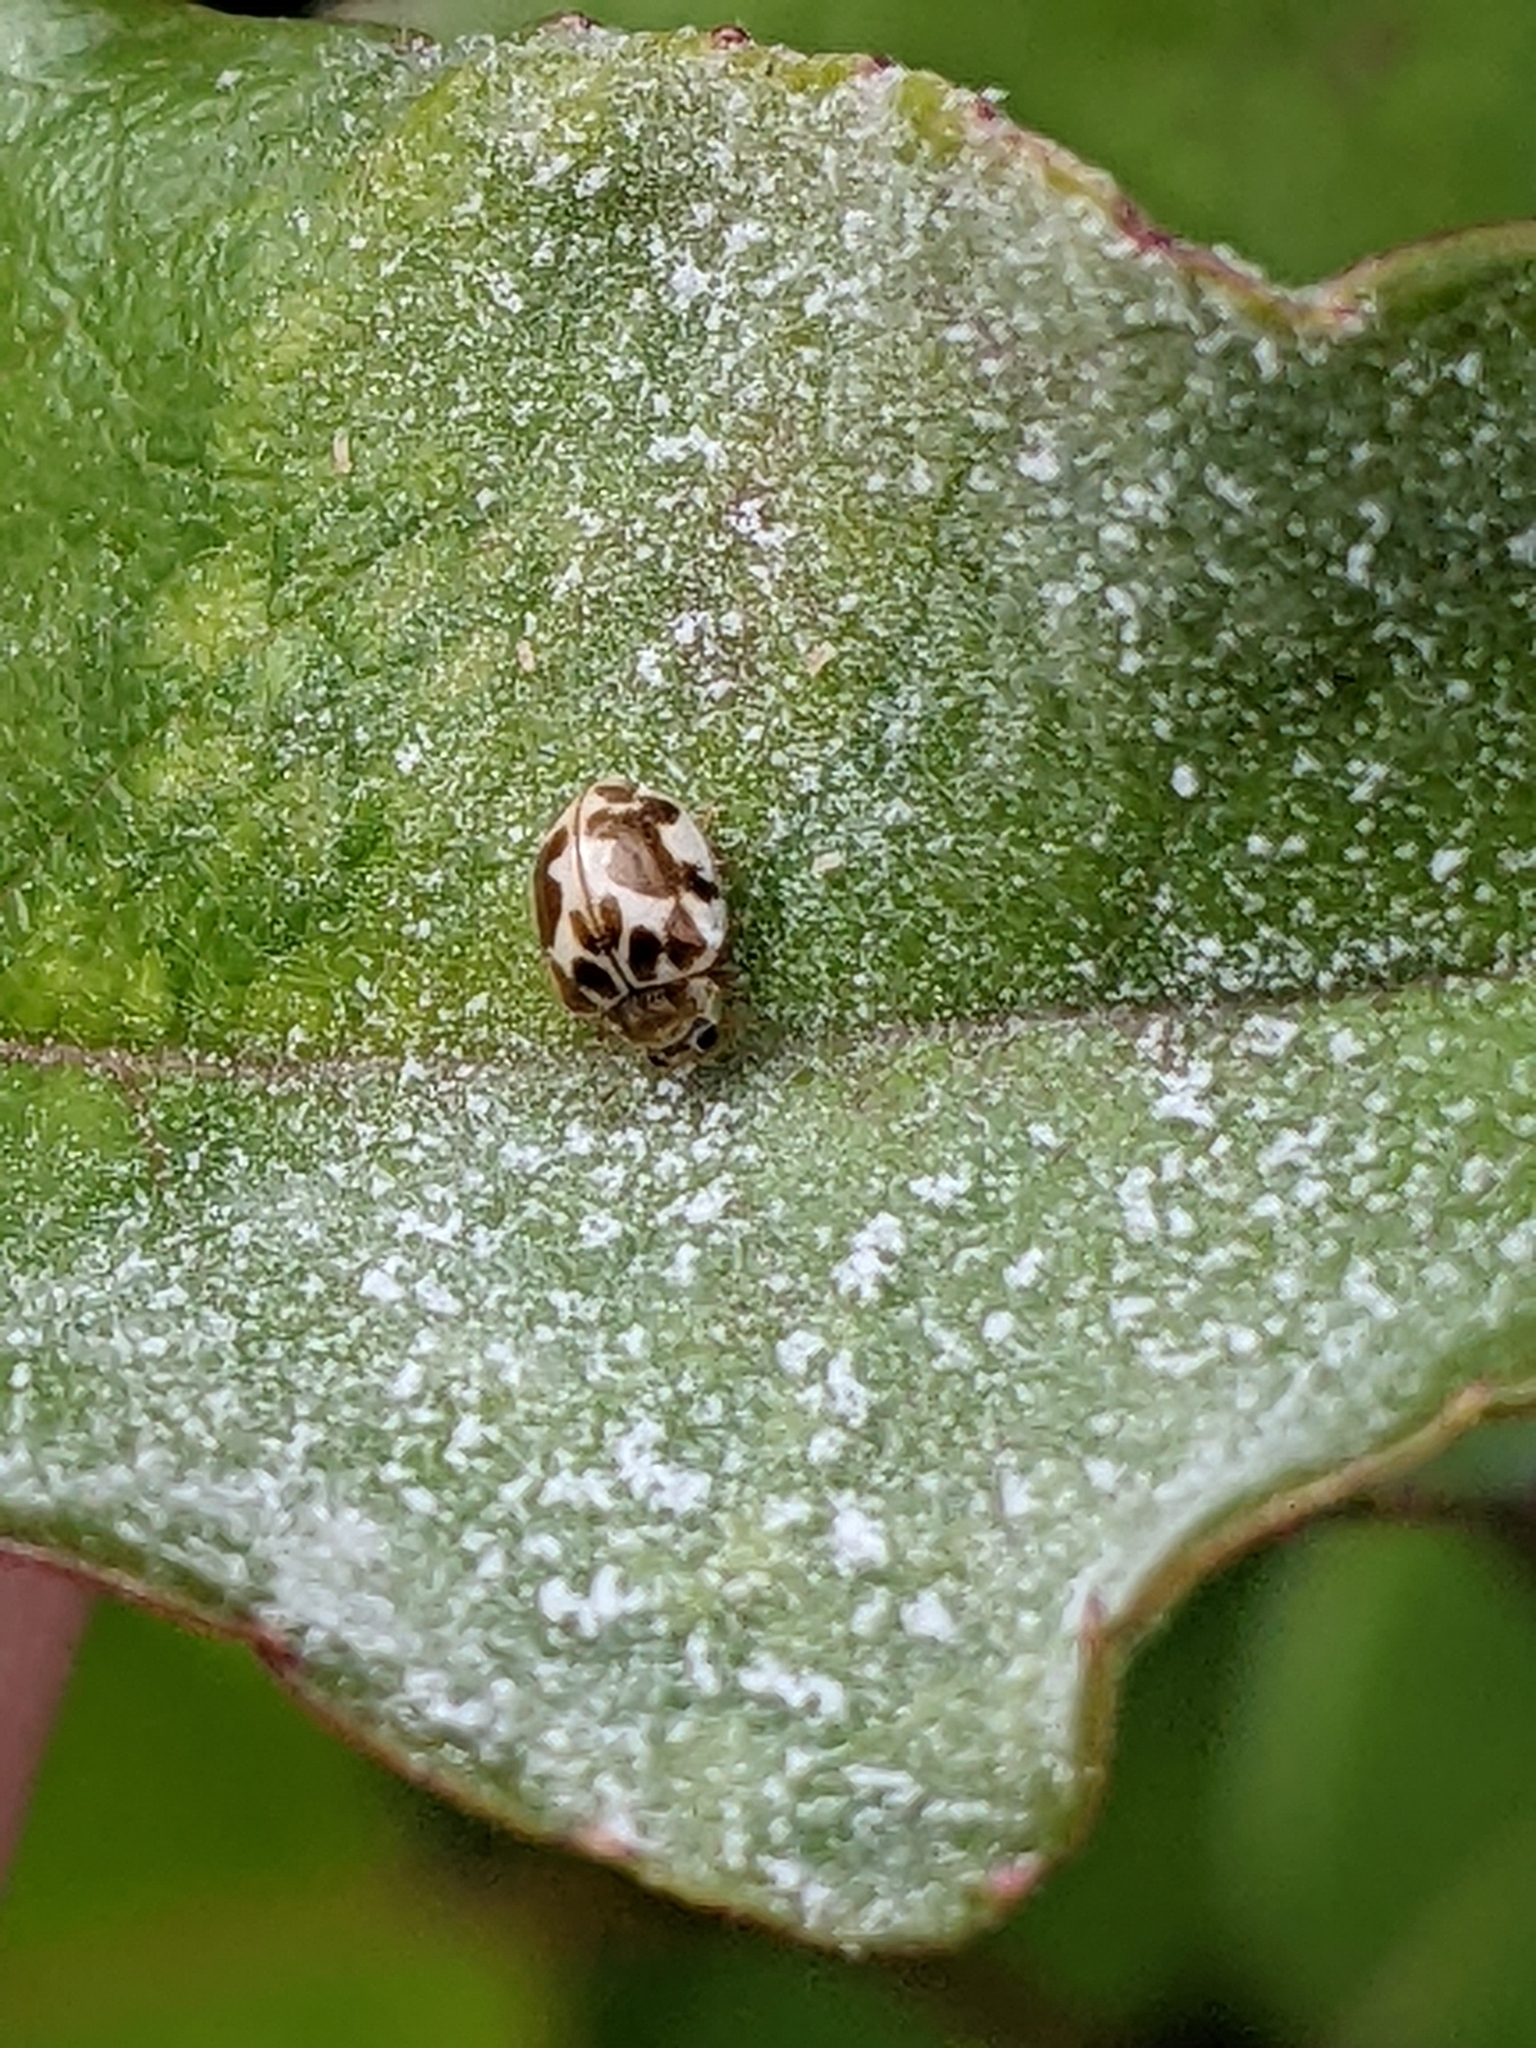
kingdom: Animalia
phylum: Arthropoda
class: Insecta
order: Coleoptera
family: Coccinellidae
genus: Psyllobora
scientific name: Psyllobora vigintimaculata
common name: Ladybird beetle
